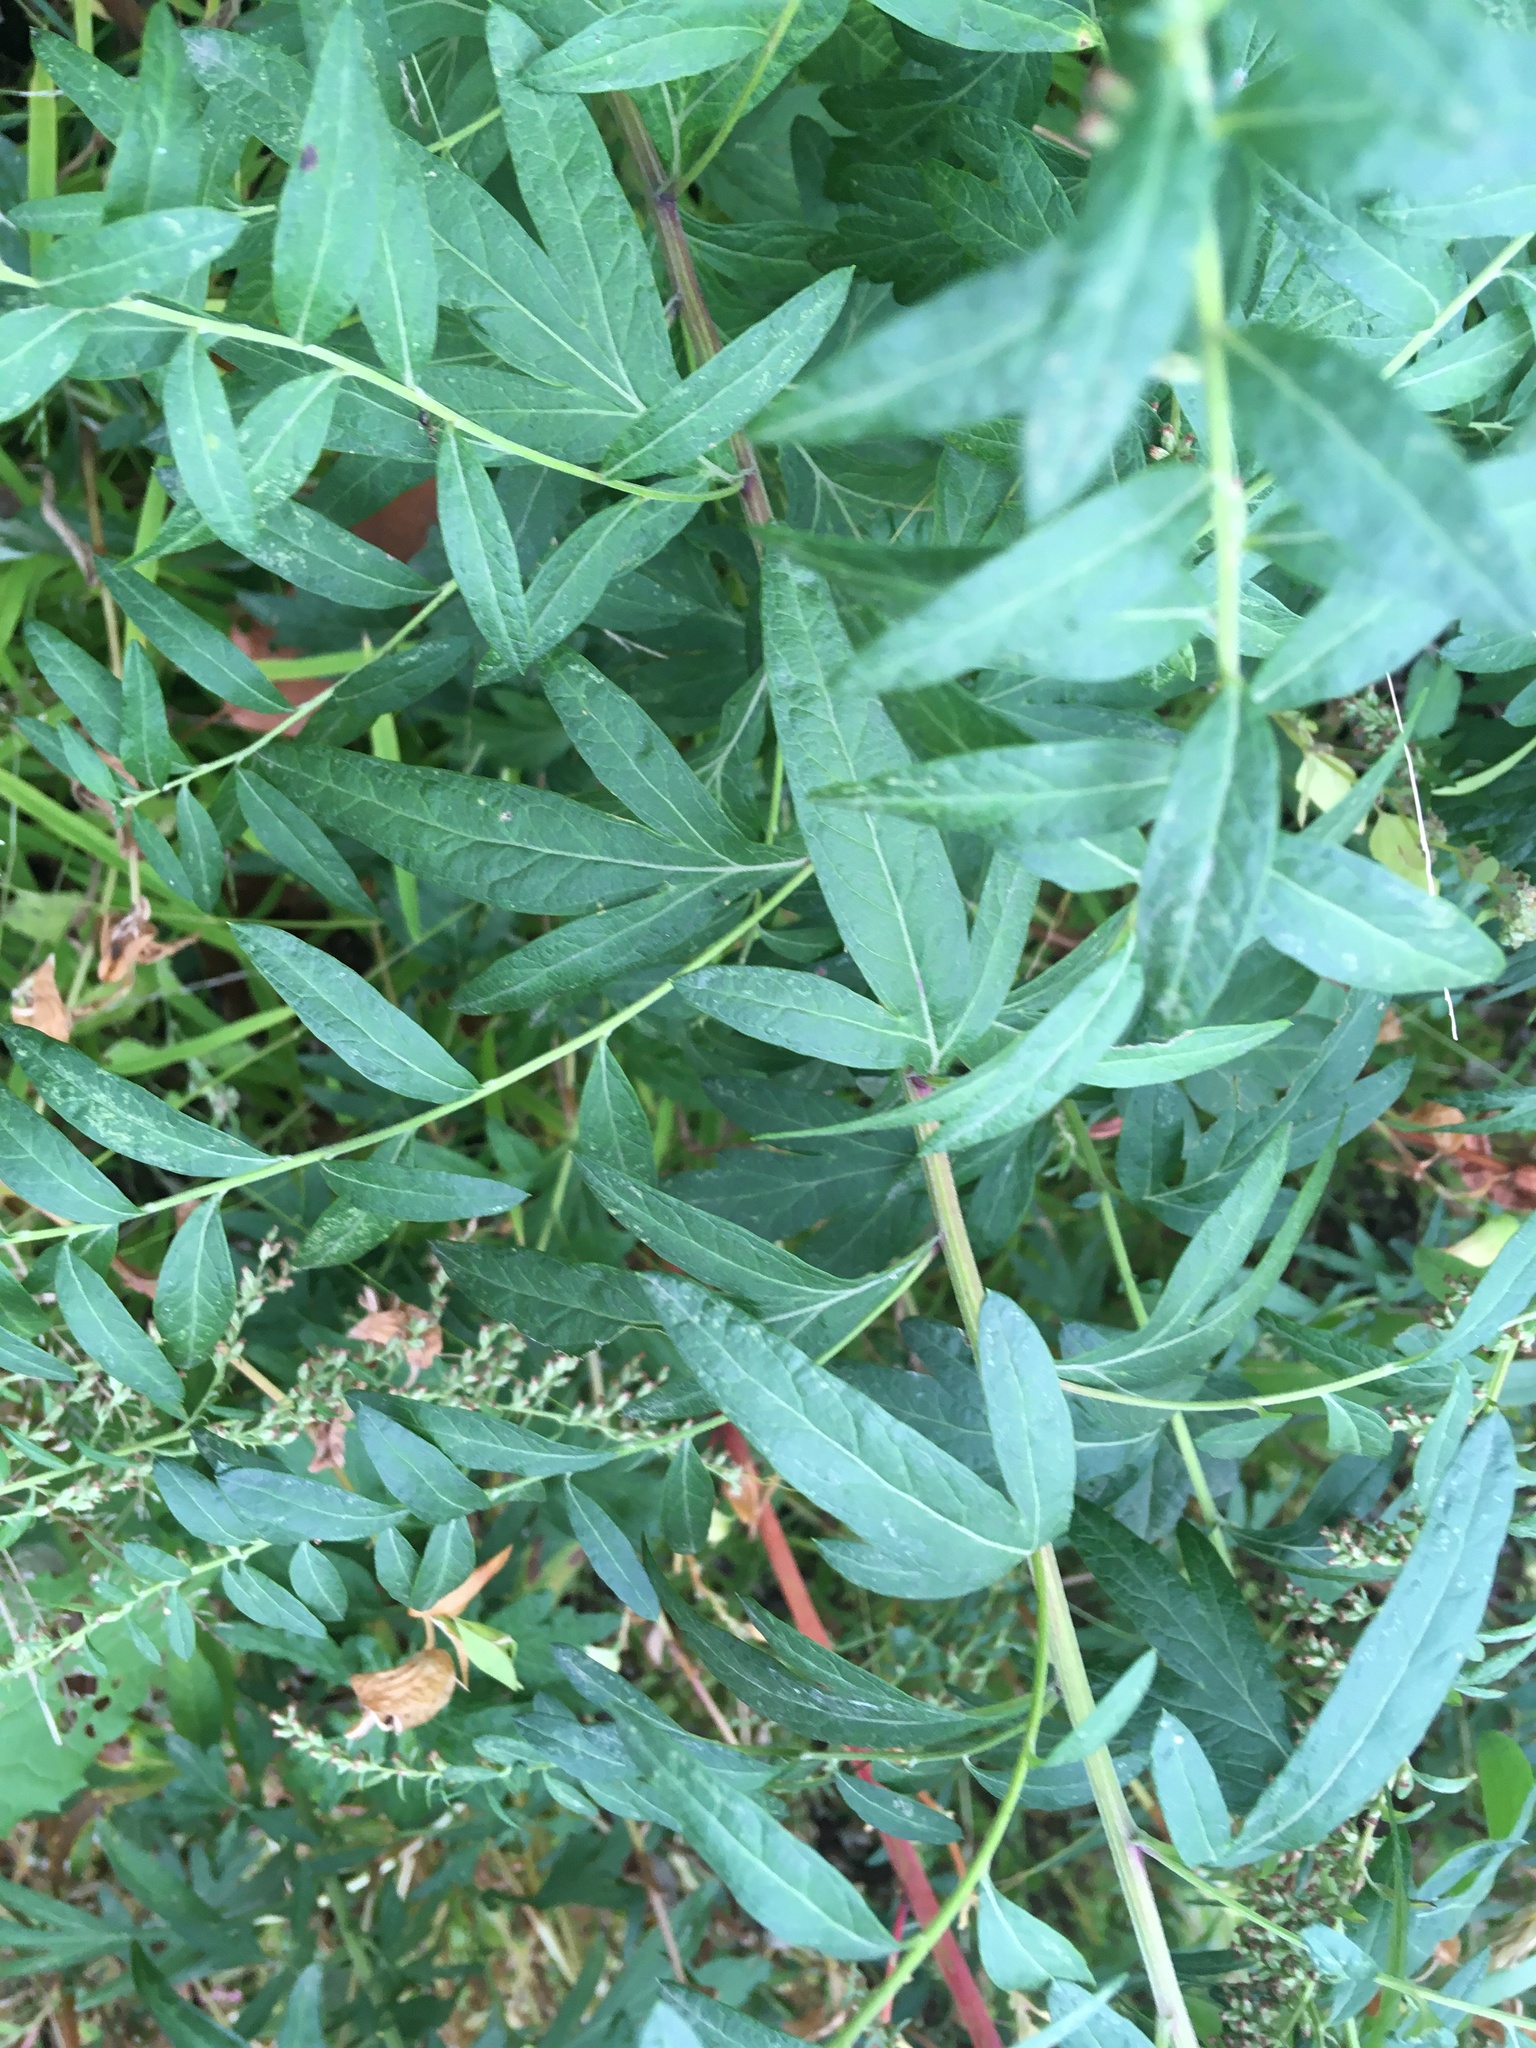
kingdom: Plantae
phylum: Tracheophyta
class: Magnoliopsida
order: Asterales
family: Asteraceae
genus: Artemisia
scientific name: Artemisia vulgaris
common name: Mugwort
